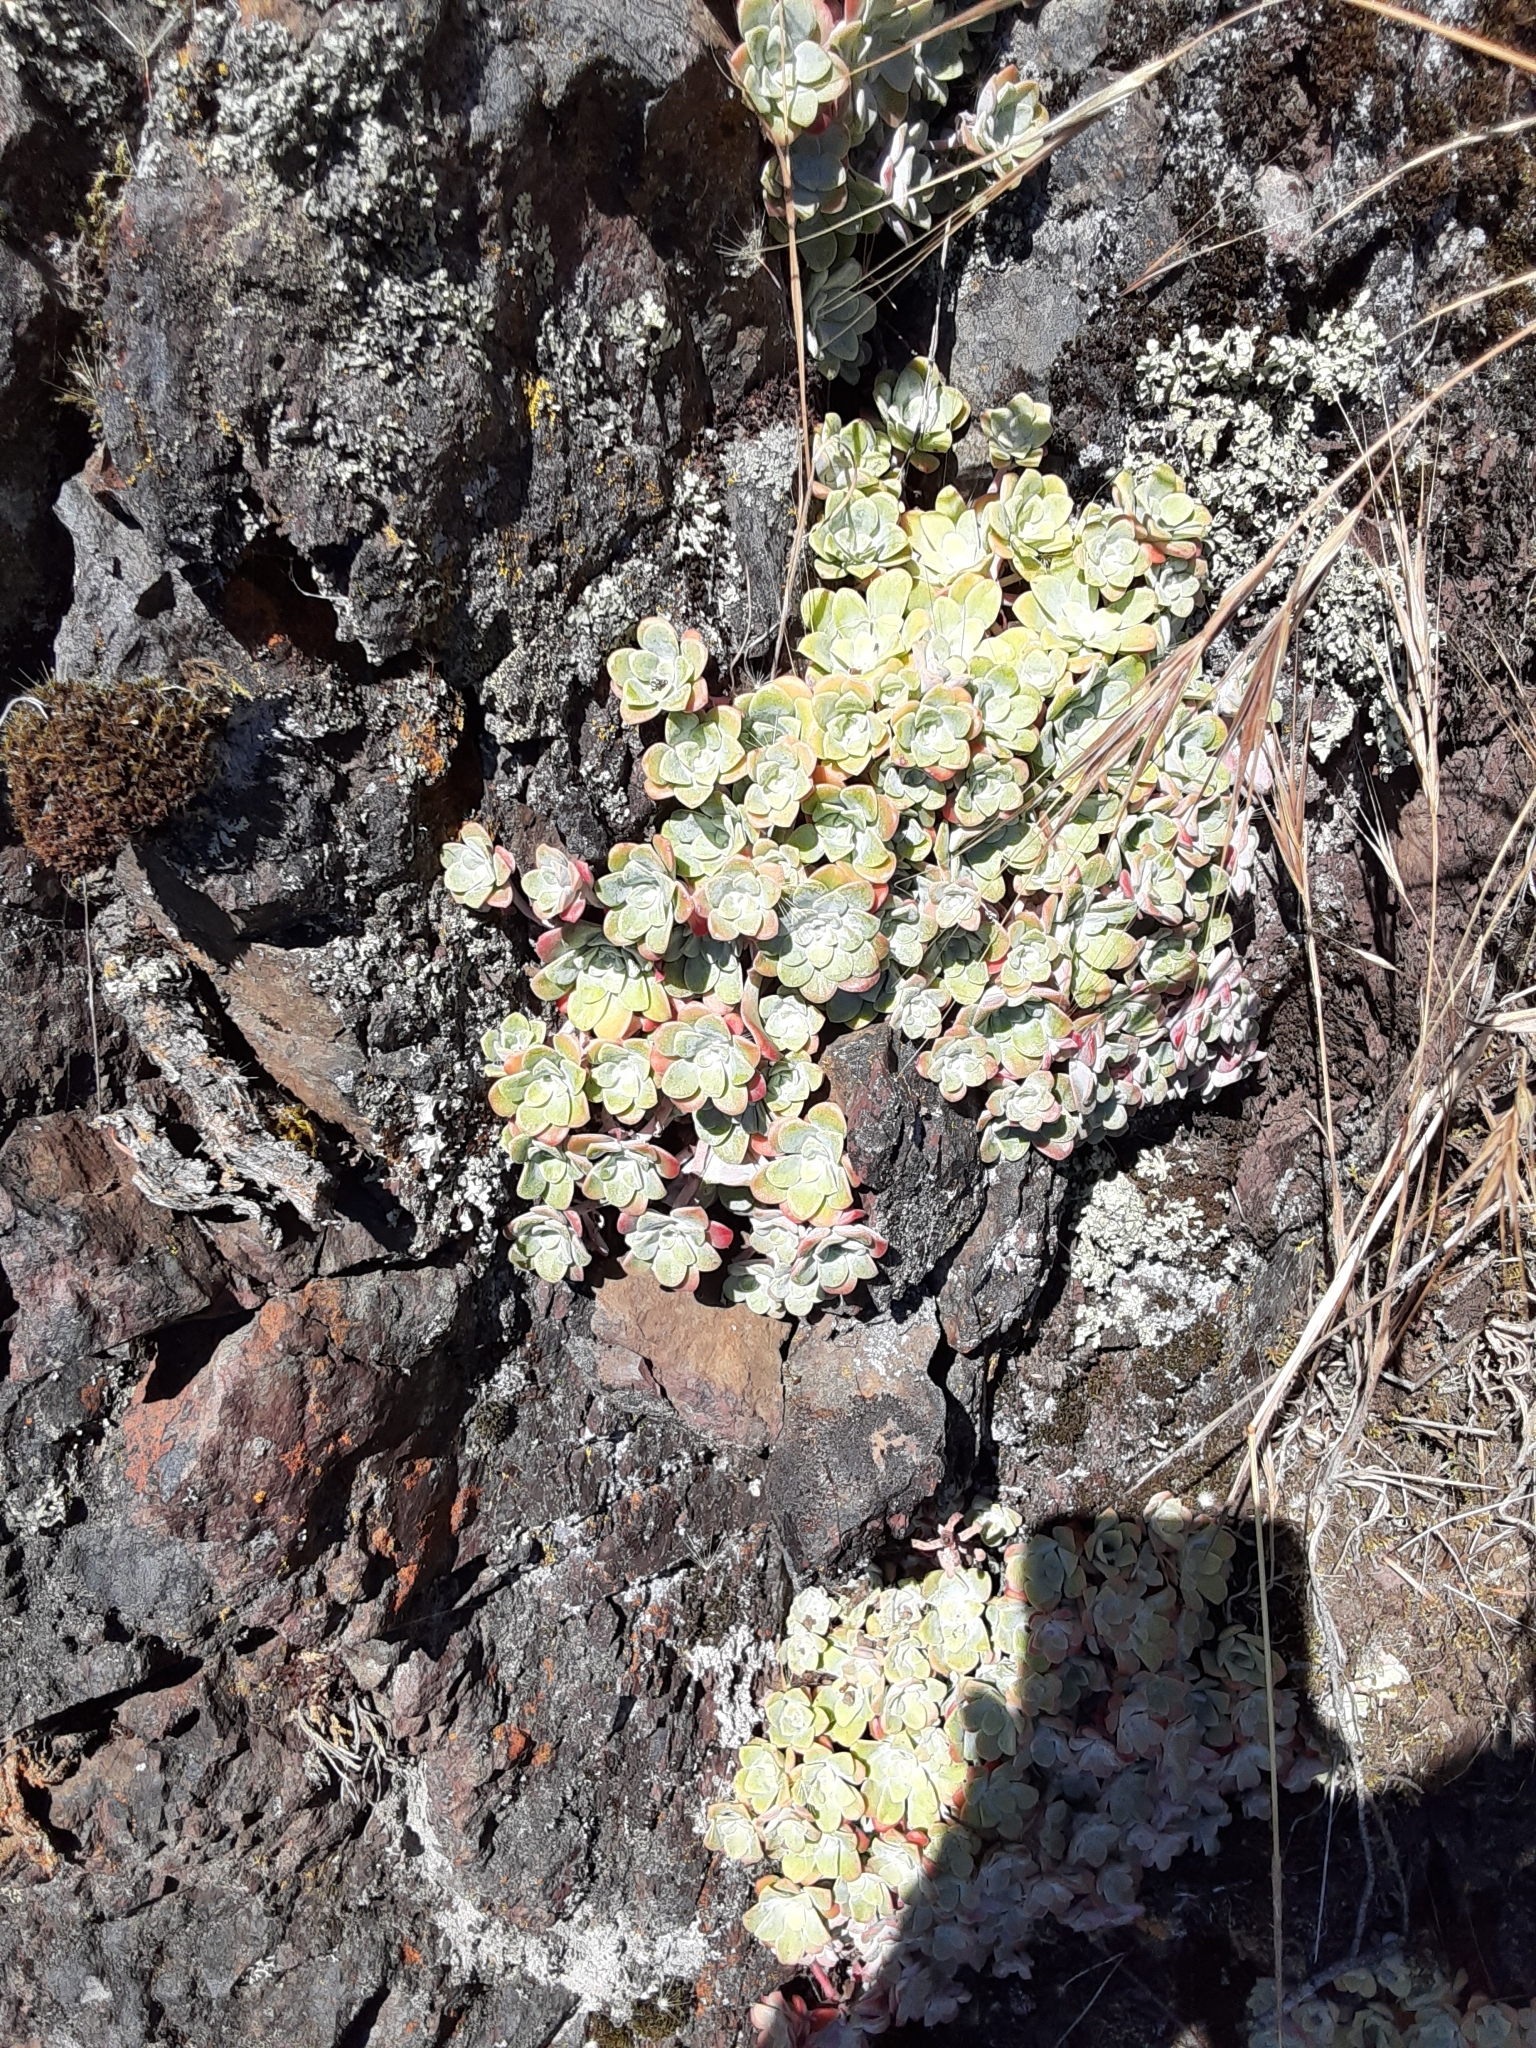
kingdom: Plantae
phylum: Tracheophyta
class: Magnoliopsida
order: Saxifragales
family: Crassulaceae
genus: Sedum
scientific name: Sedum spathulifolium
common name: Colorado stonecrop
